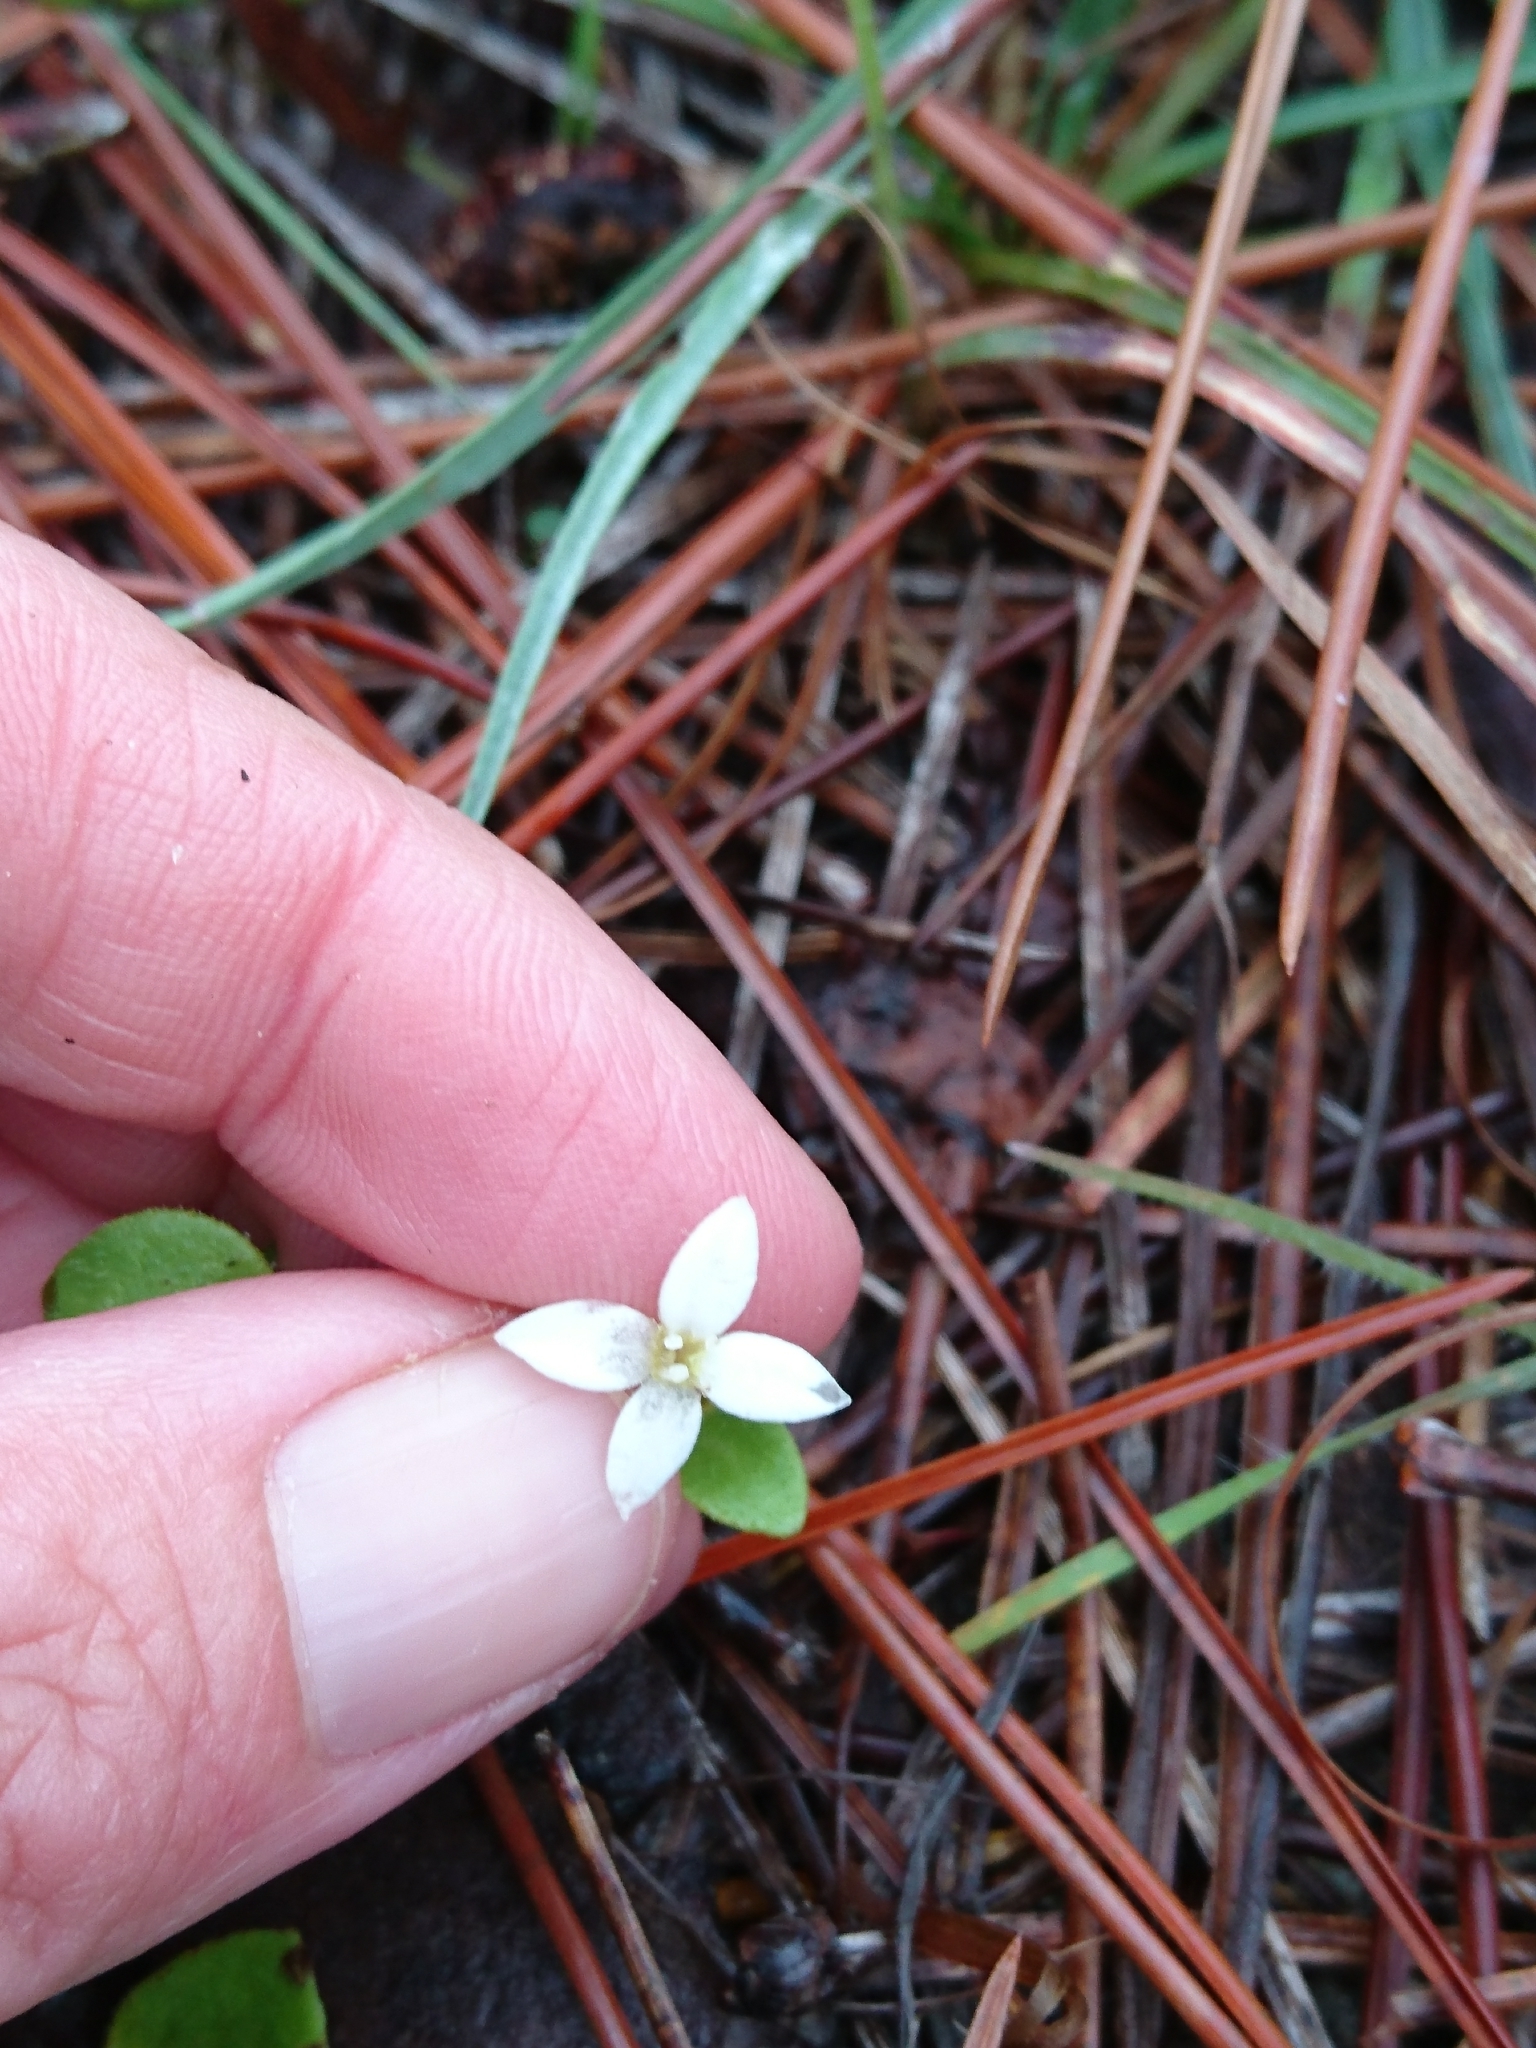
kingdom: Plantae
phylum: Tracheophyta
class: Magnoliopsida
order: Gentianales
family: Rubiaceae
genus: Houstonia
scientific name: Houstonia procumbens
